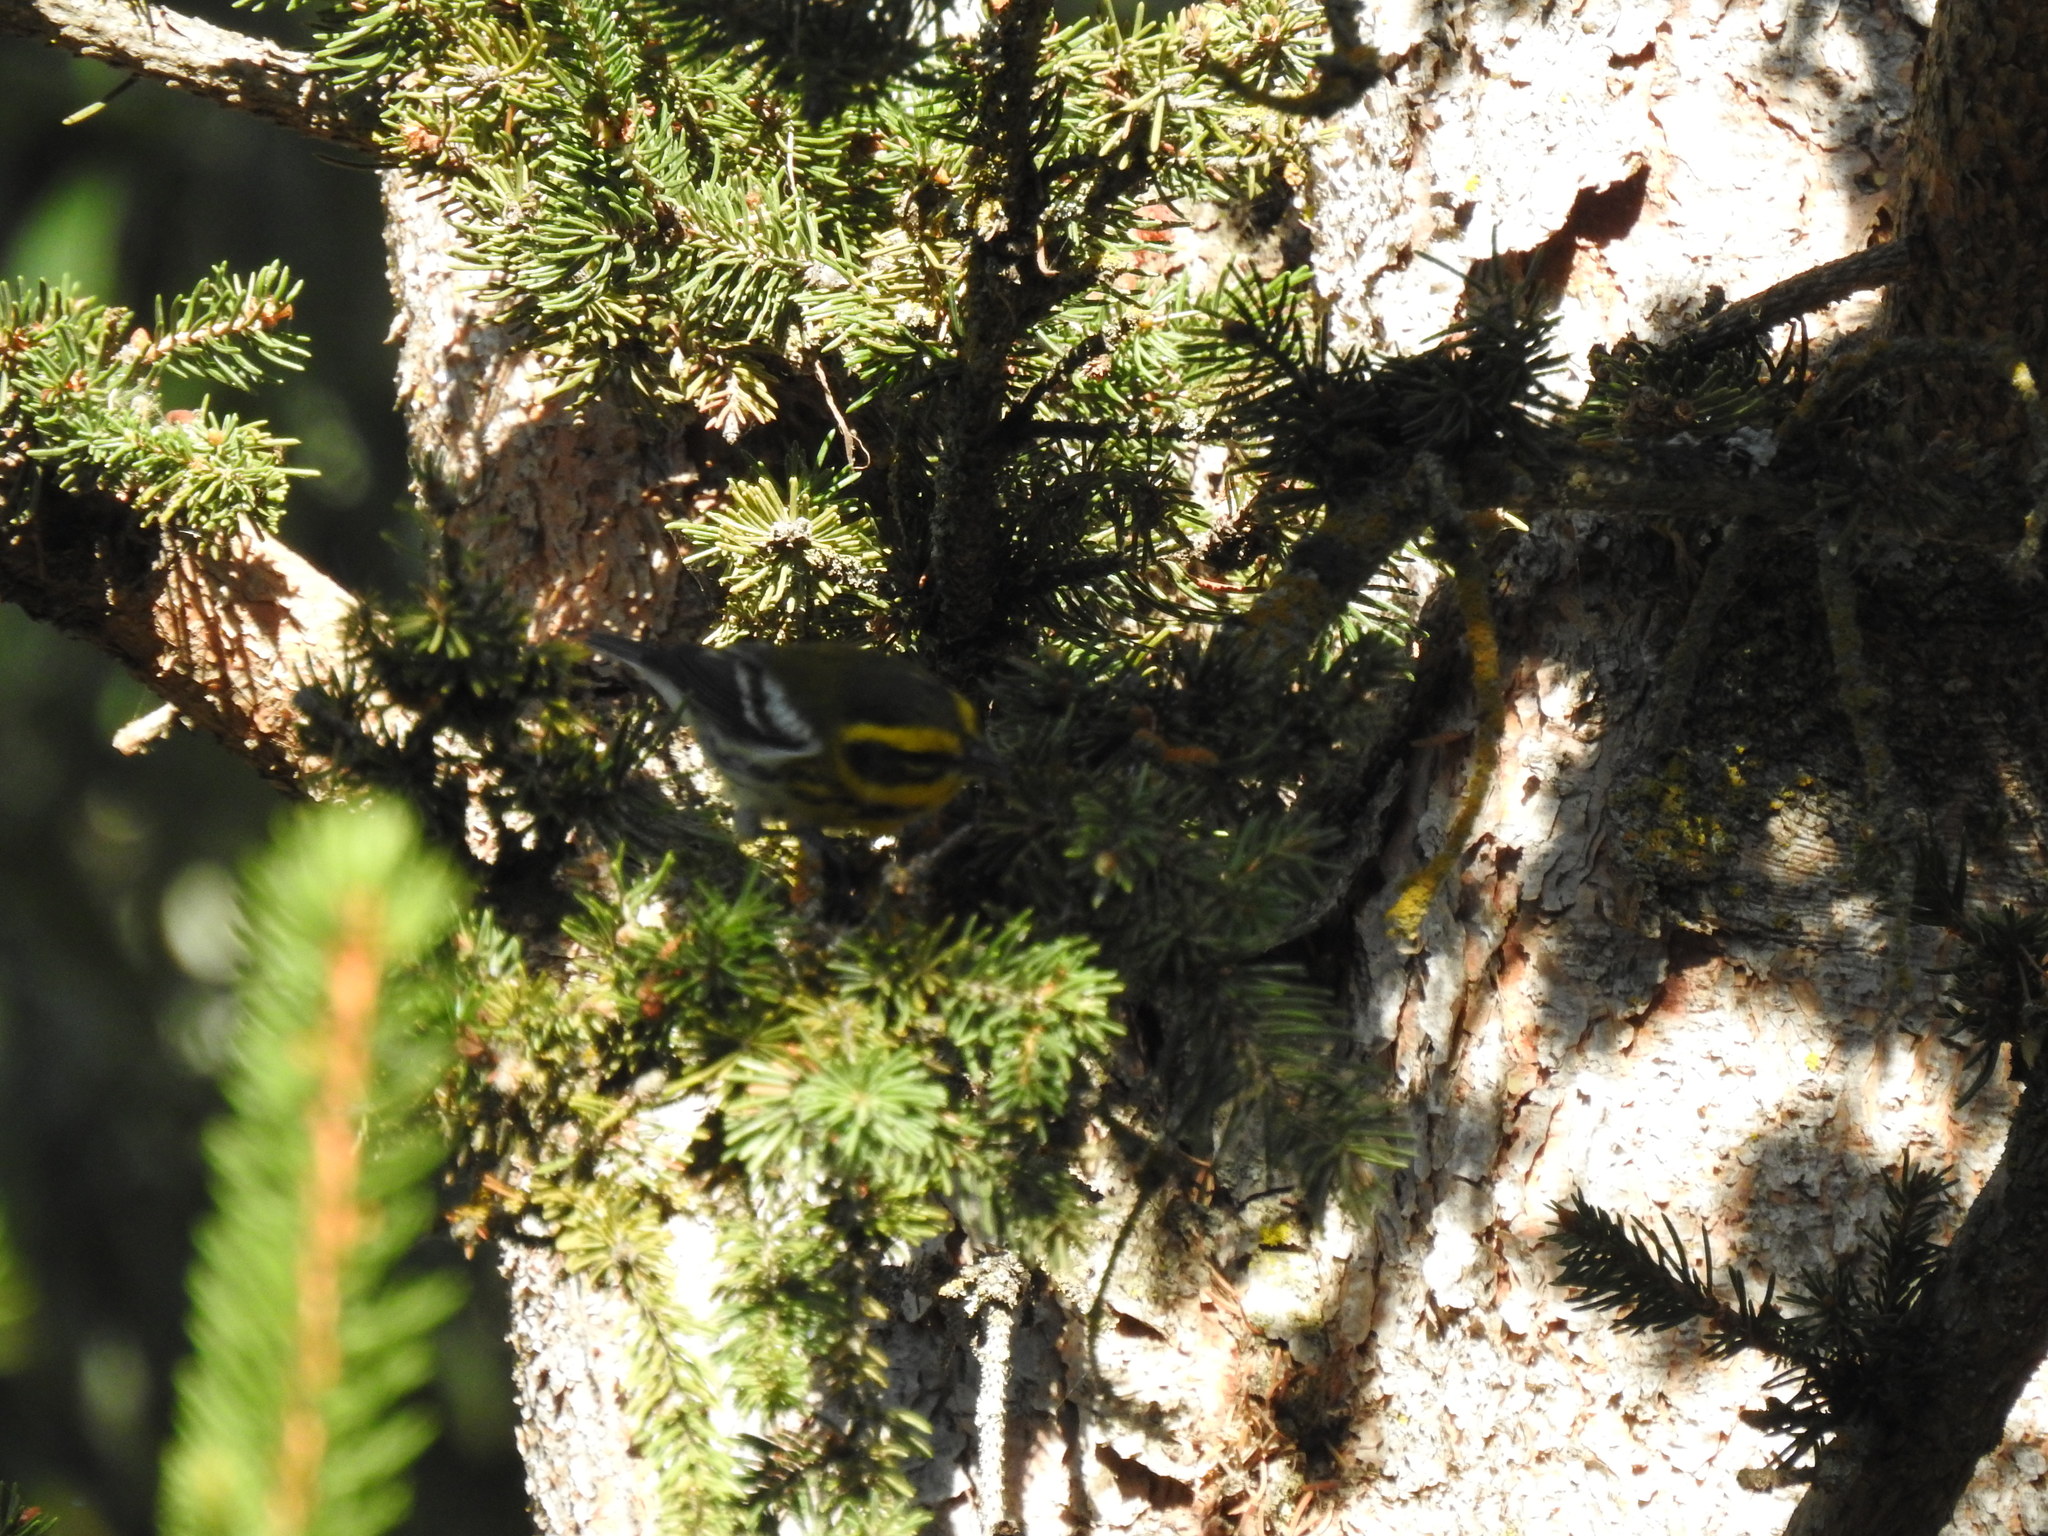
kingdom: Animalia
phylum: Chordata
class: Aves
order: Passeriformes
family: Parulidae
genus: Setophaga
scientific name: Setophaga townsendi
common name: Townsend's warbler
